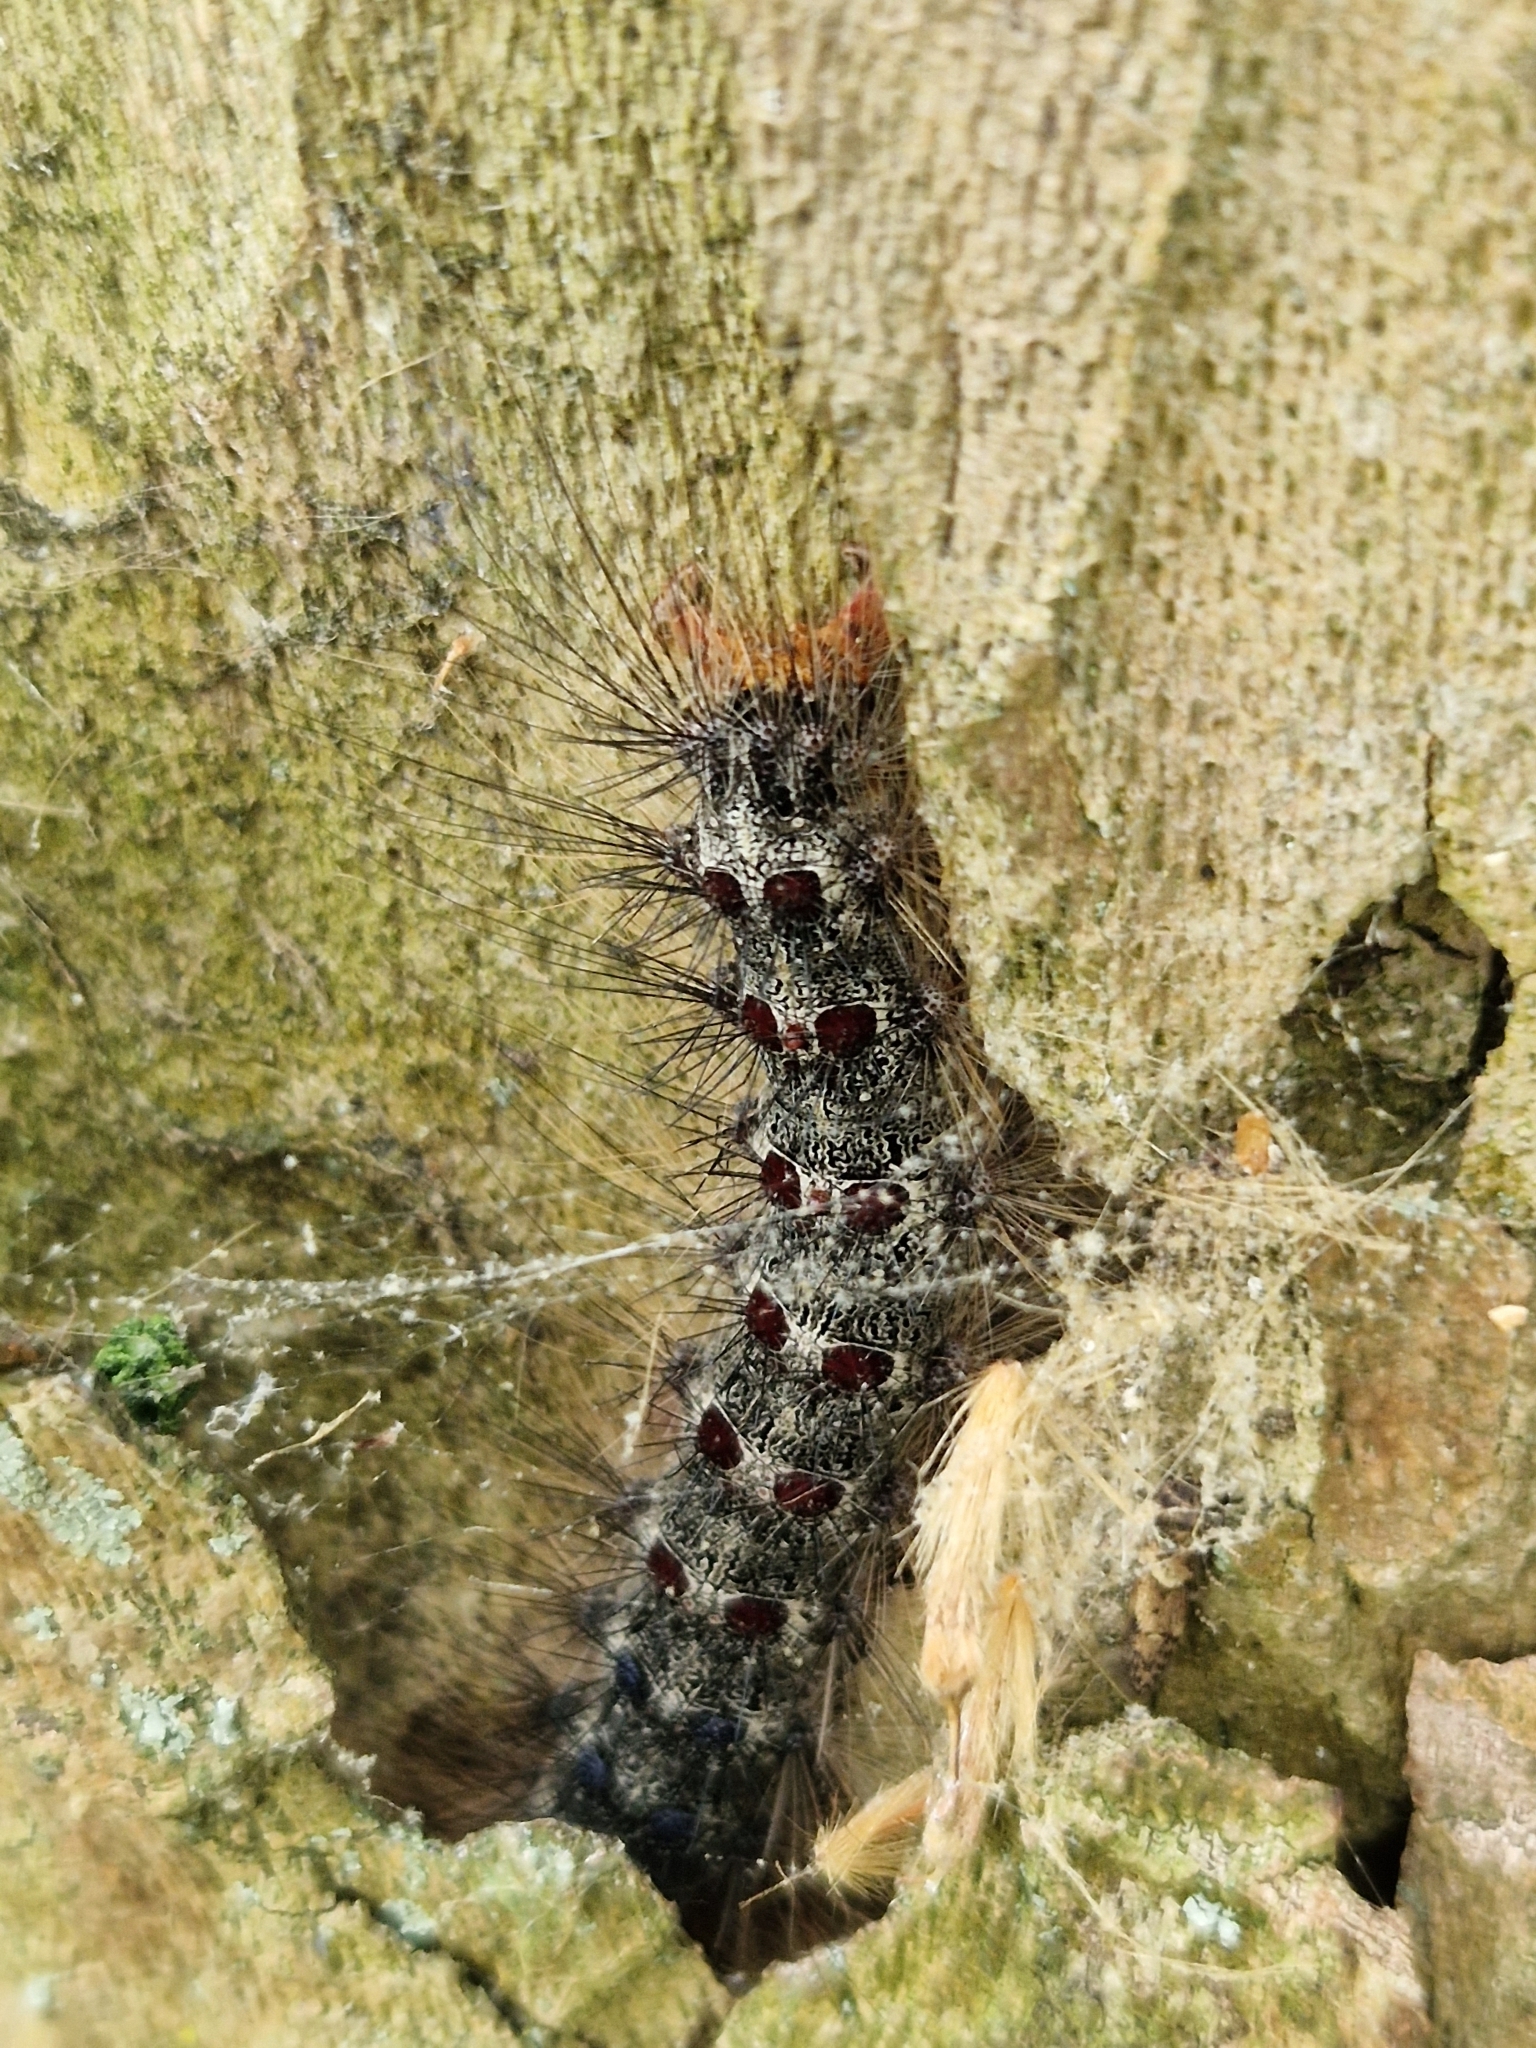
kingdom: Animalia
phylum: Arthropoda
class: Insecta
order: Lepidoptera
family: Erebidae
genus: Lymantria
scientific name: Lymantria dispar
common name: Gypsy moth
